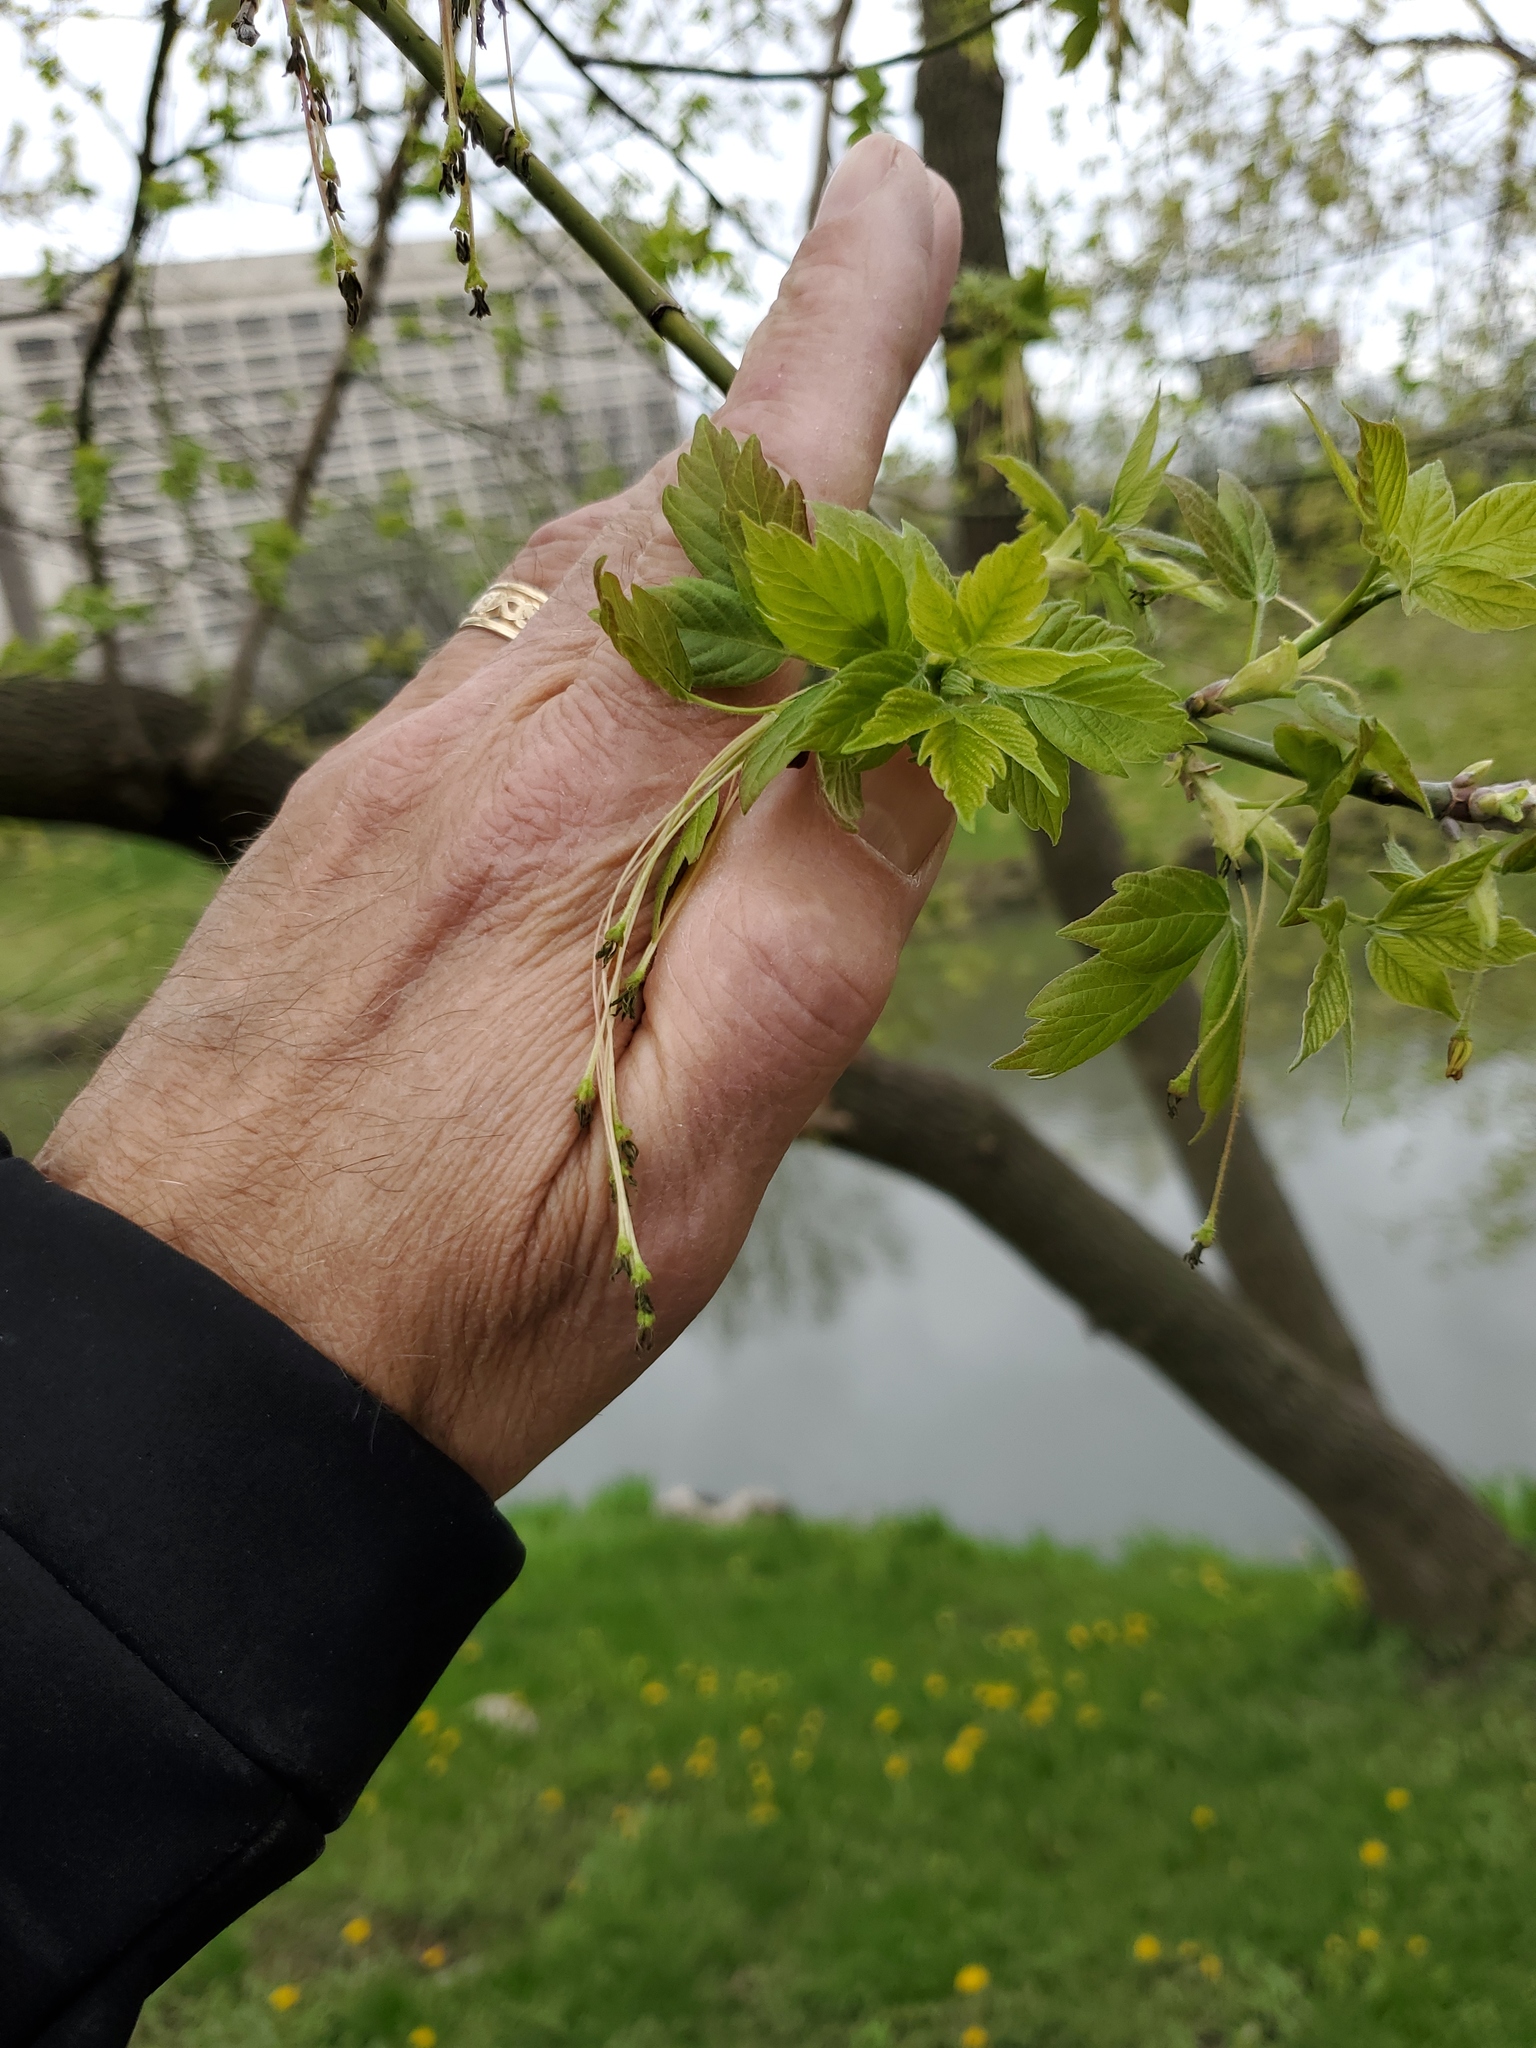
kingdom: Plantae
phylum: Tracheophyta
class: Magnoliopsida
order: Sapindales
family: Sapindaceae
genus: Acer
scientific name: Acer negundo
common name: Ashleaf maple
